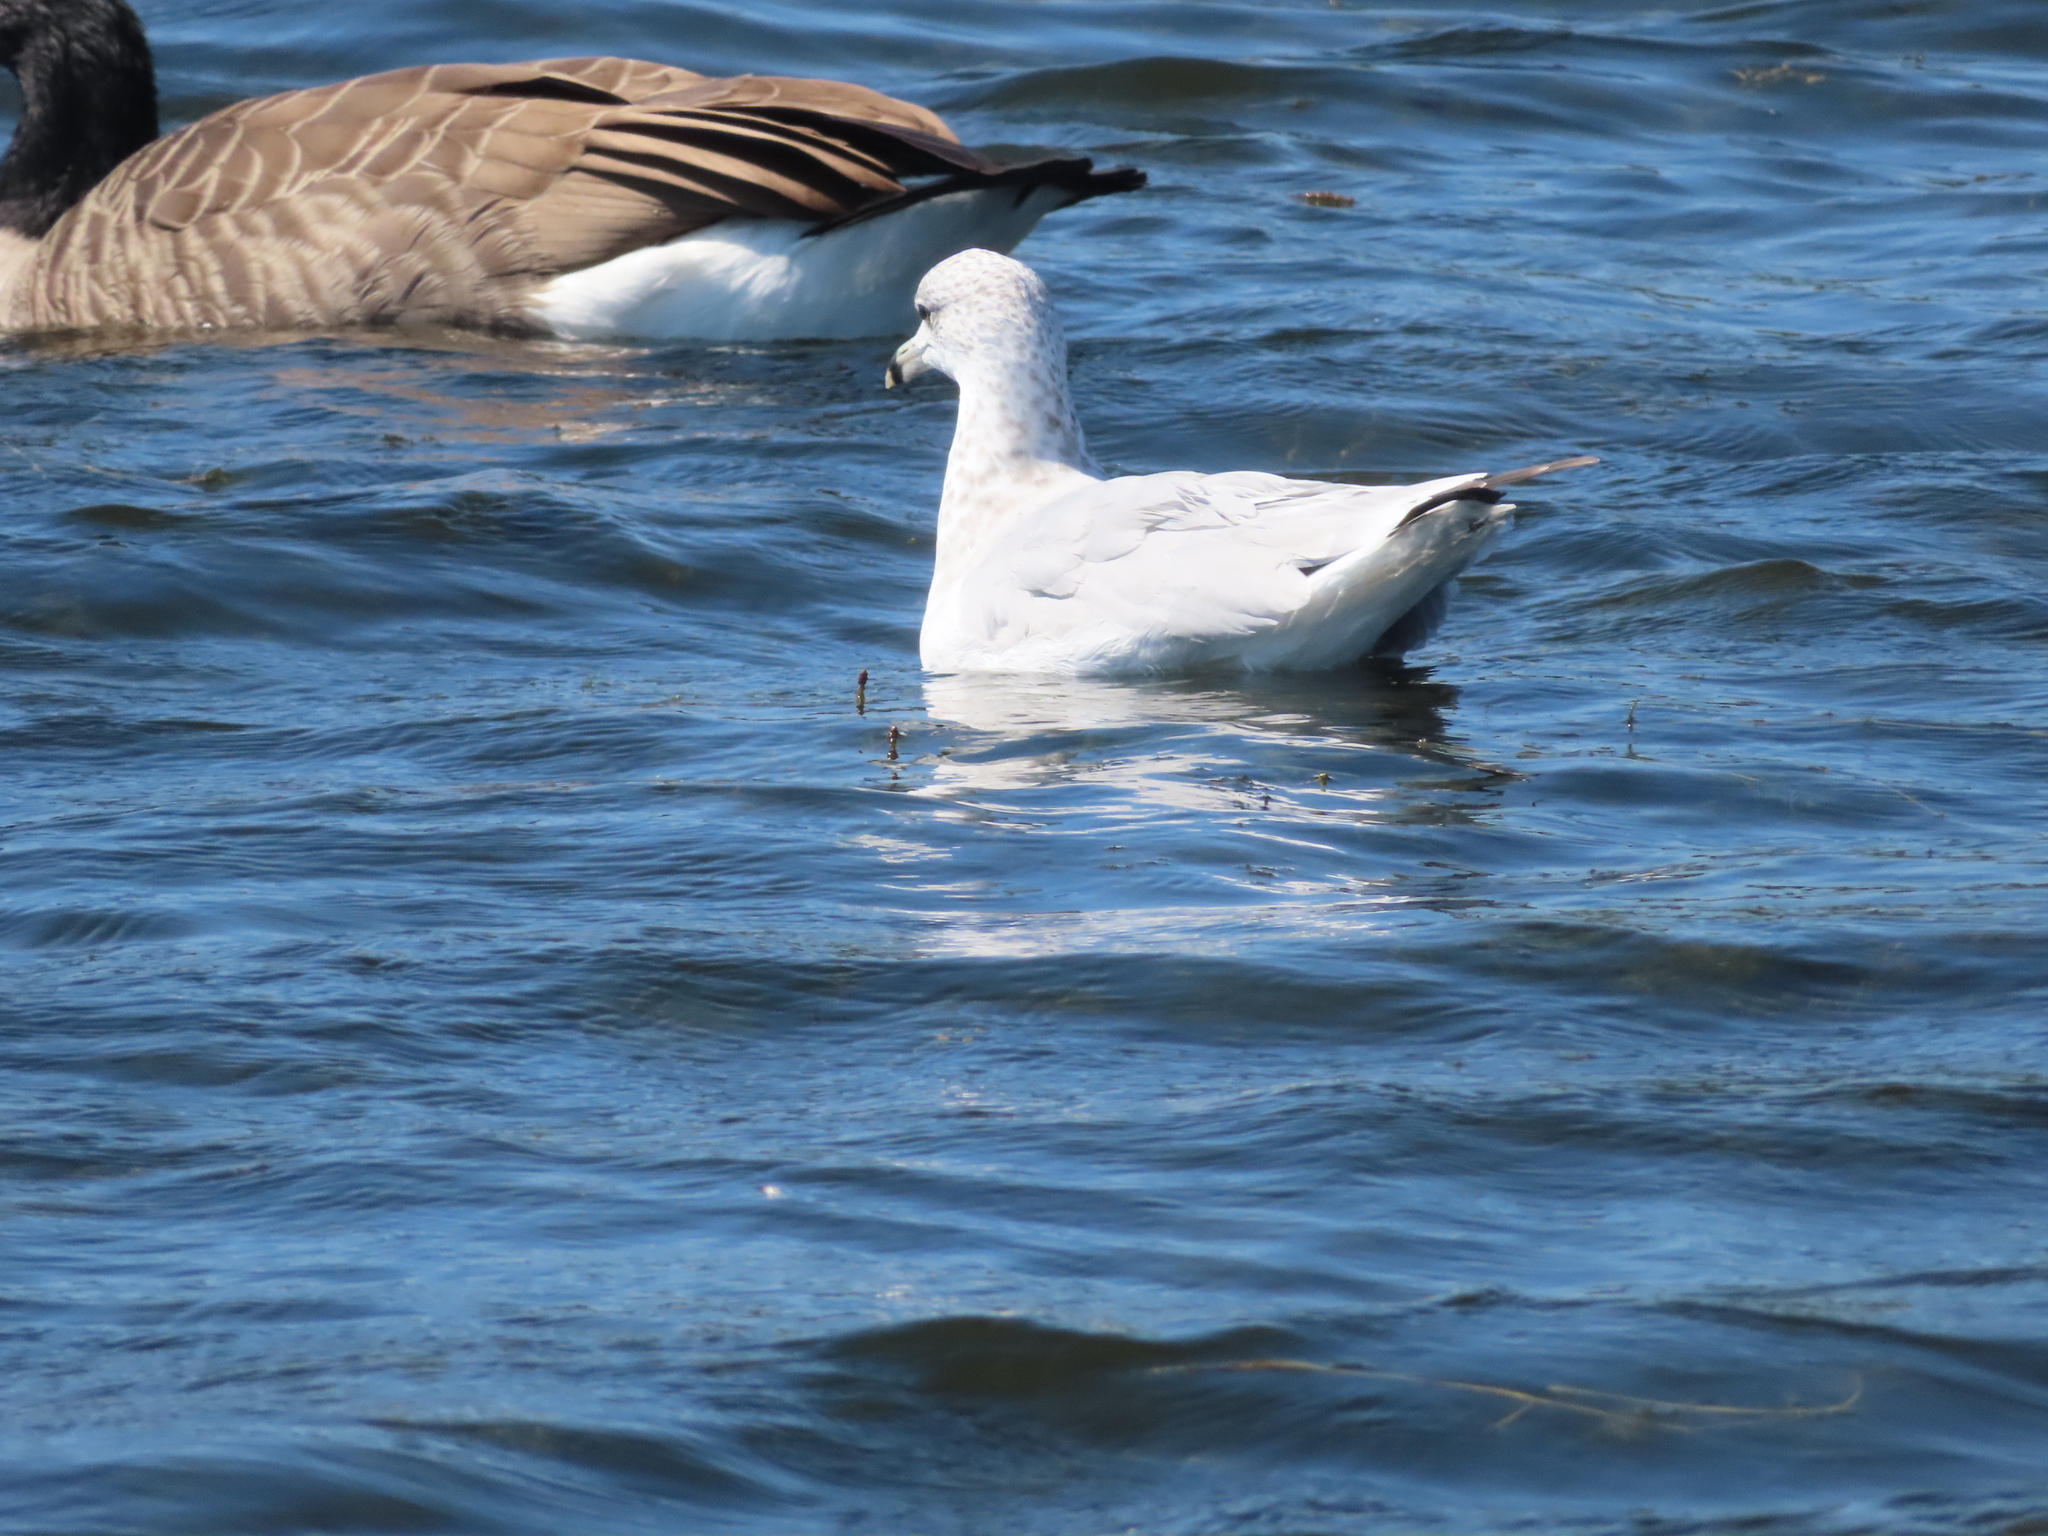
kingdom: Animalia
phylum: Chordata
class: Aves
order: Charadriiformes
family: Laridae
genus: Larus
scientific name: Larus delawarensis
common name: Ring-billed gull
